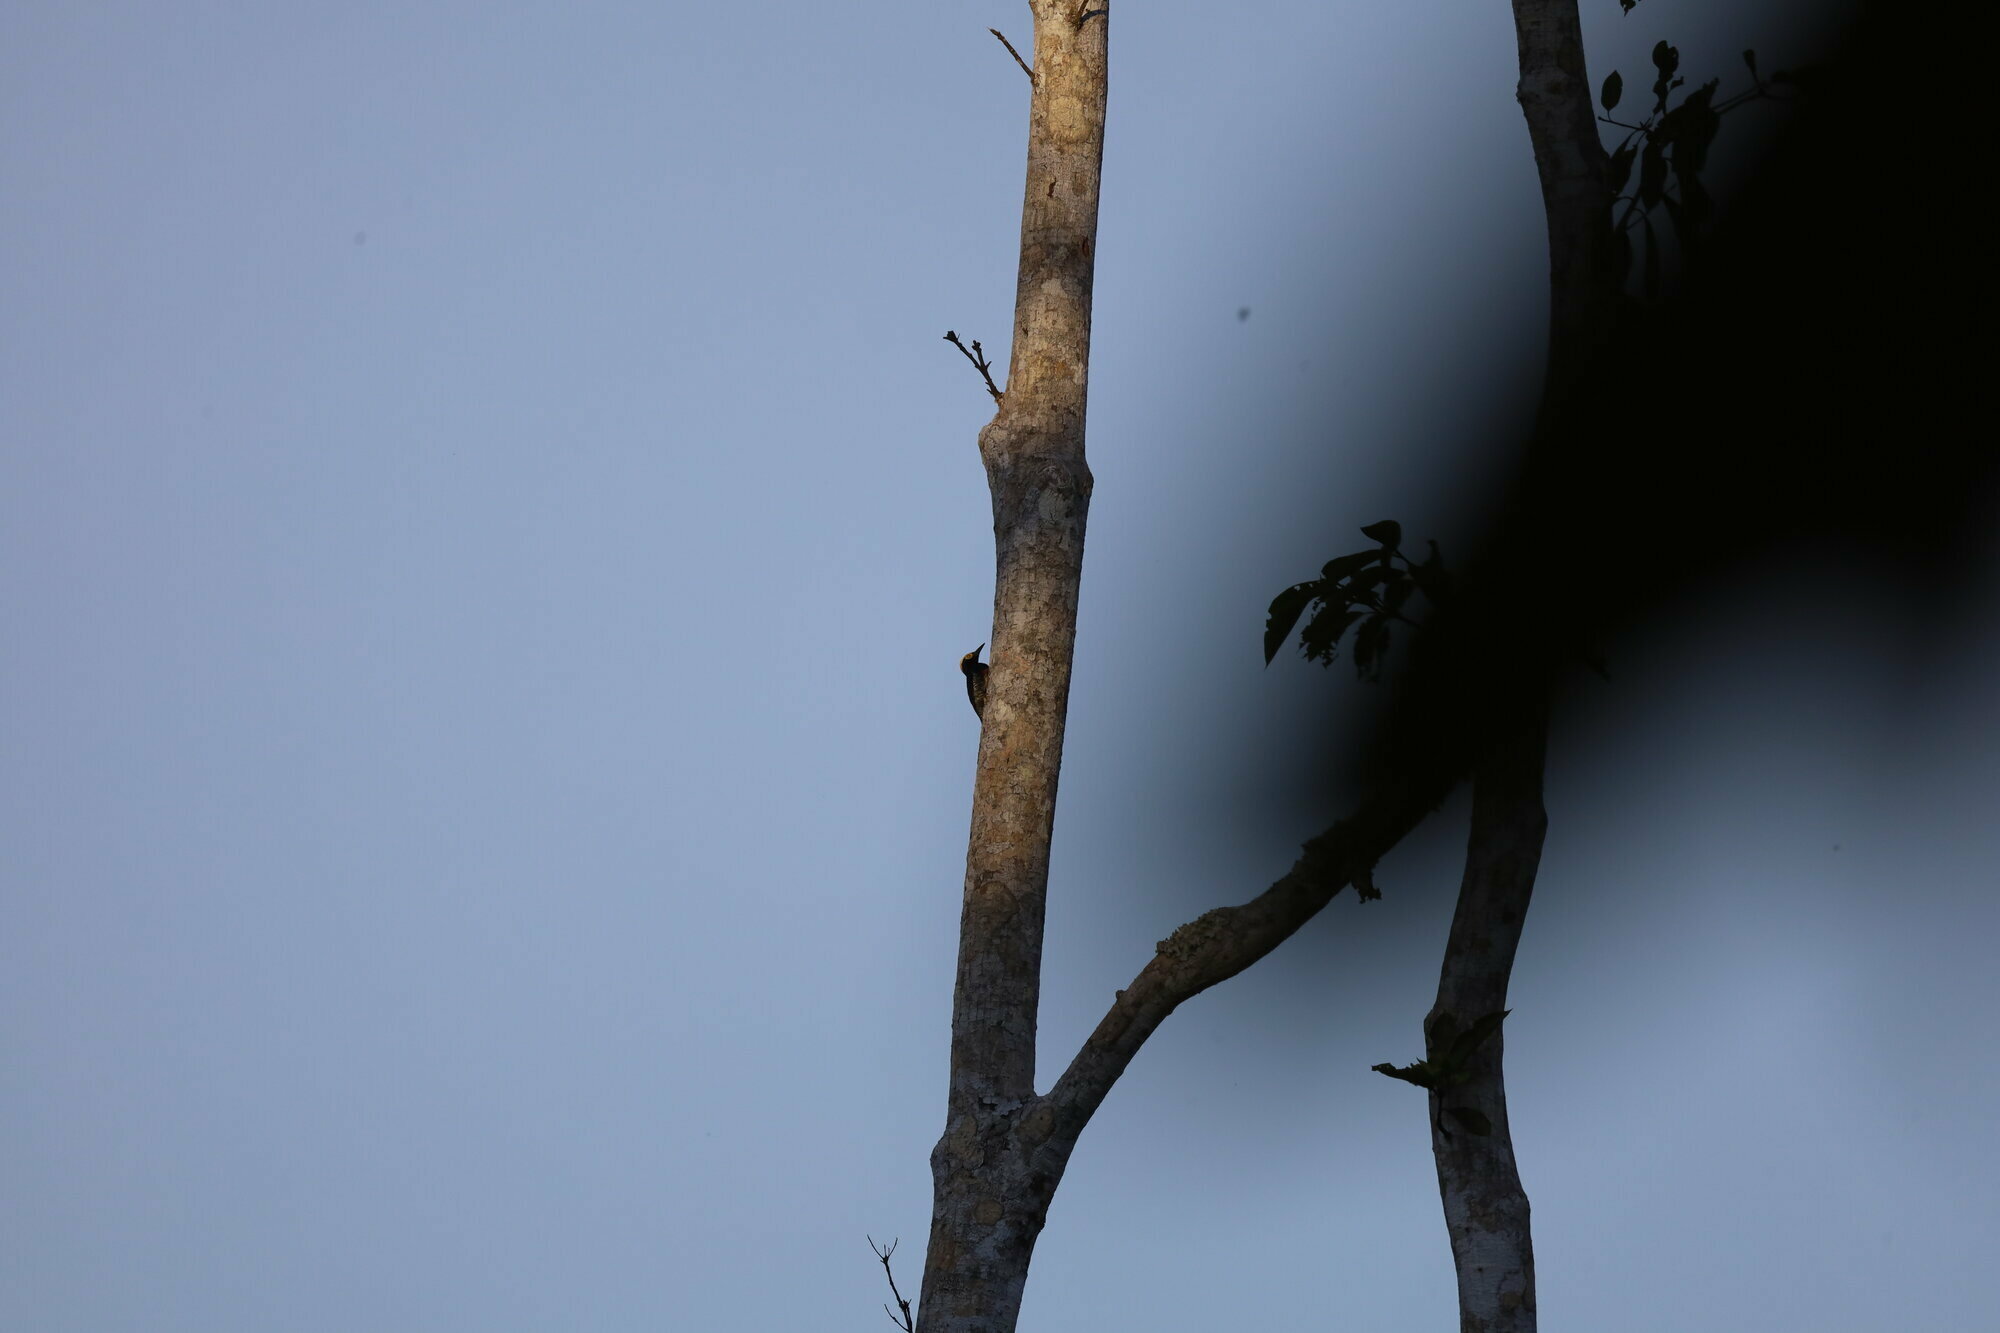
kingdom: Animalia
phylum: Chordata
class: Aves
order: Piciformes
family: Picidae
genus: Melanerpes
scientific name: Melanerpes cruentatus
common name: Yellow-tufted woodpecker
